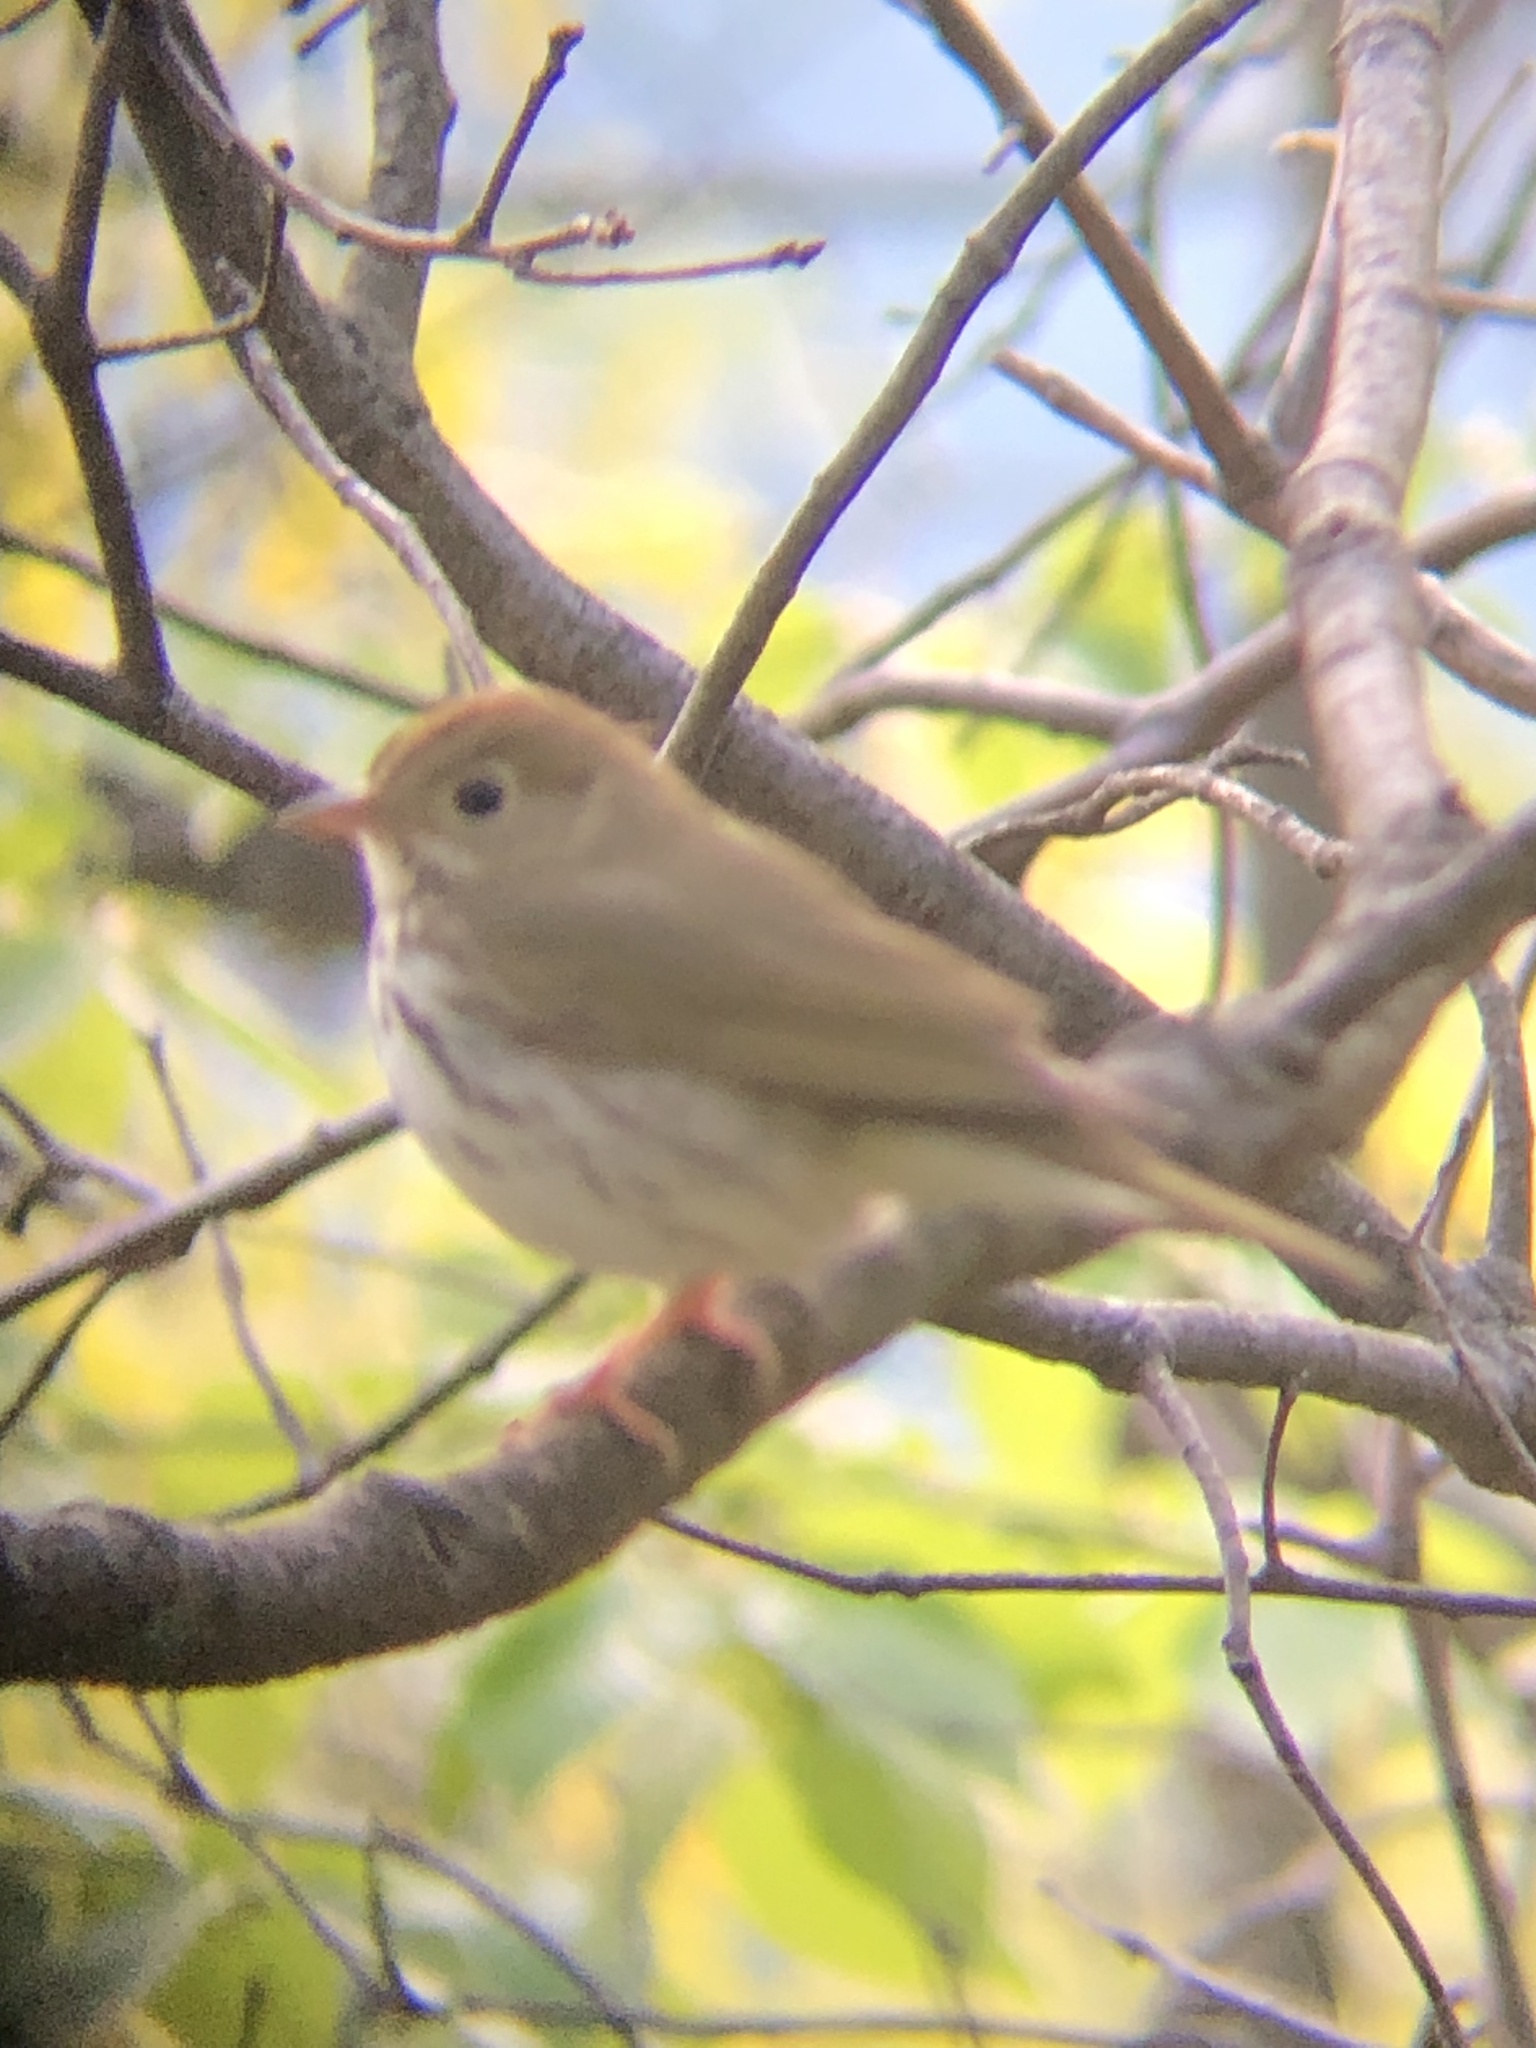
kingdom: Animalia
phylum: Chordata
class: Aves
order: Passeriformes
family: Parulidae
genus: Seiurus
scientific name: Seiurus aurocapilla
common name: Ovenbird
